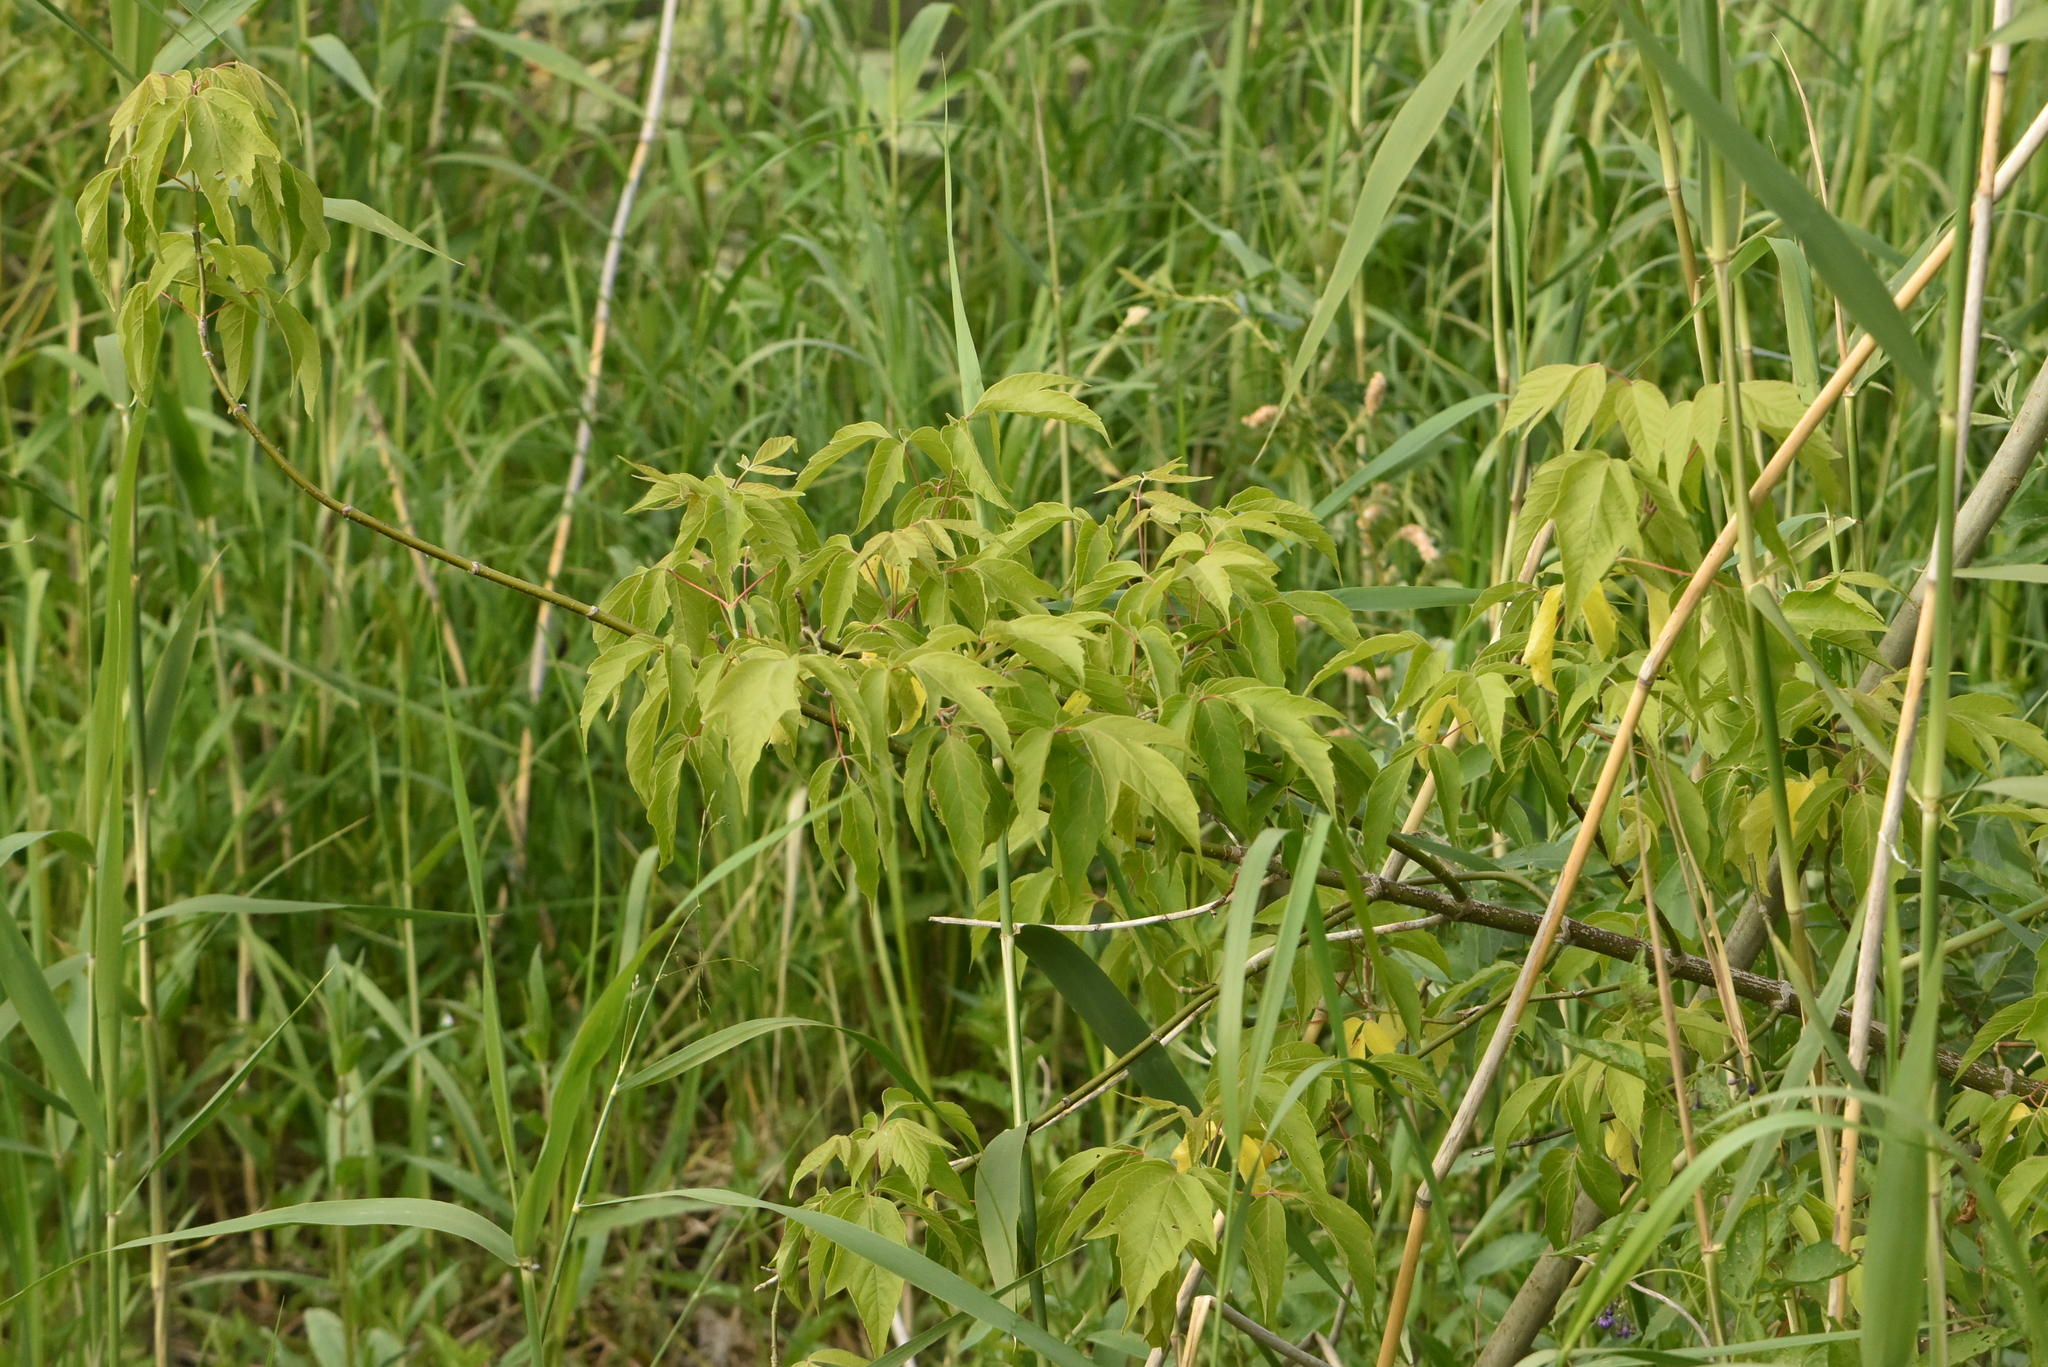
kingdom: Plantae
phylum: Tracheophyta
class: Magnoliopsida
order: Sapindales
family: Sapindaceae
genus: Acer
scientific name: Acer negundo
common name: Ashleaf maple
